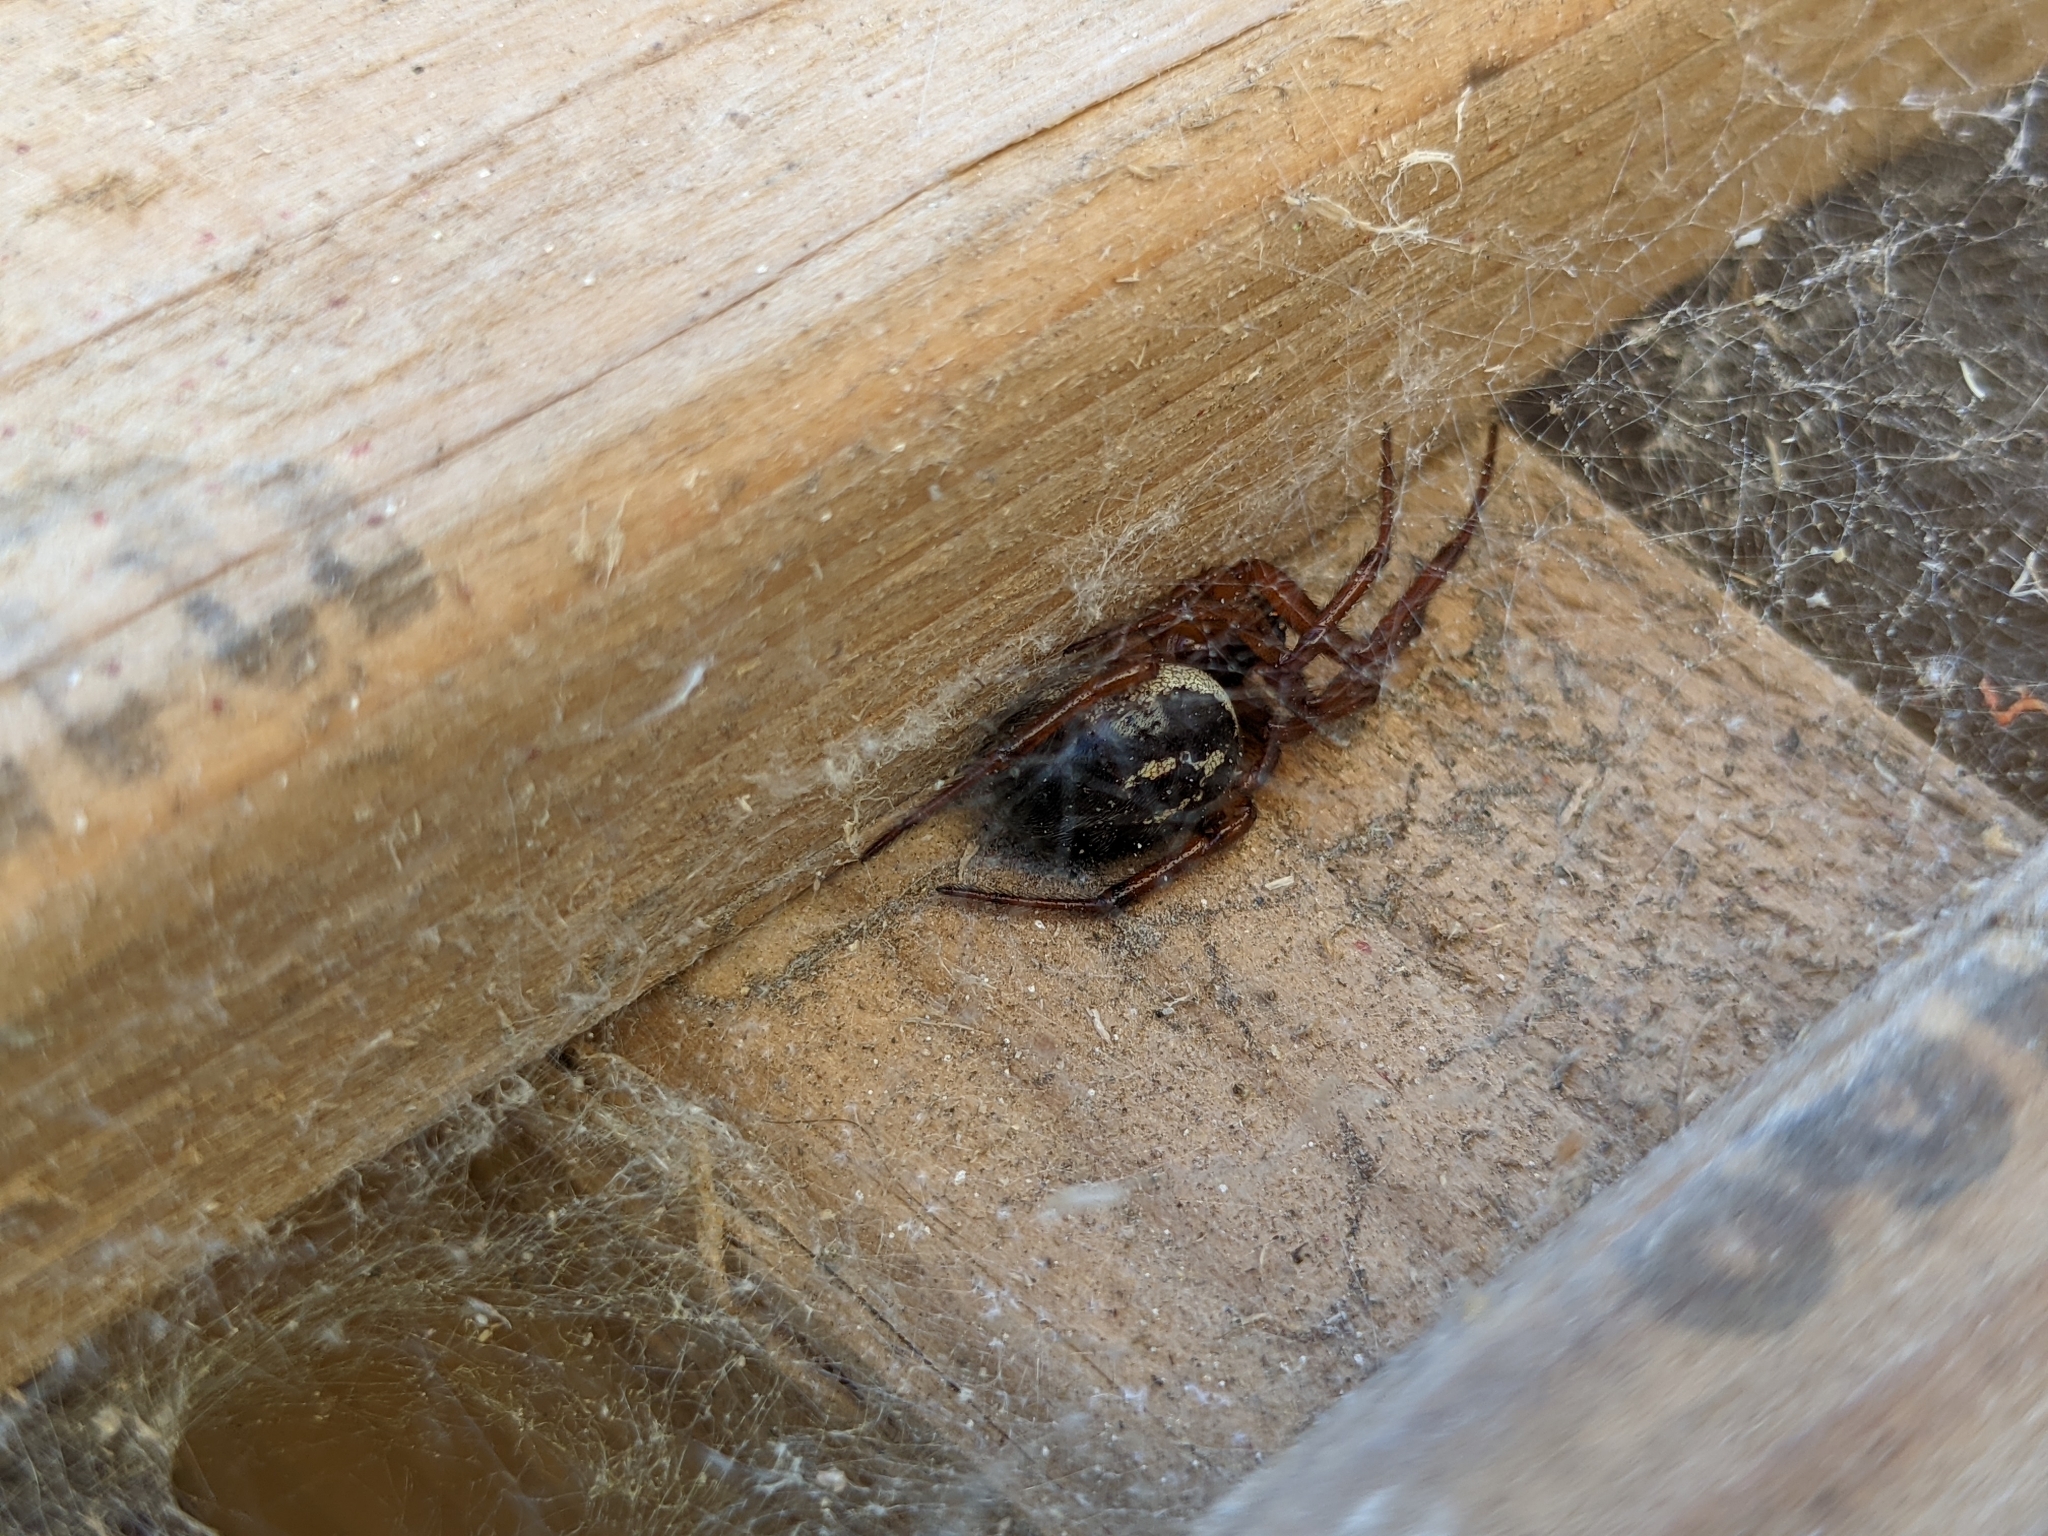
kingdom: Animalia
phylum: Arthropoda
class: Arachnida
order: Araneae
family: Theridiidae
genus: Steatoda
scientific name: Steatoda nobilis
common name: Cobweb weaver
